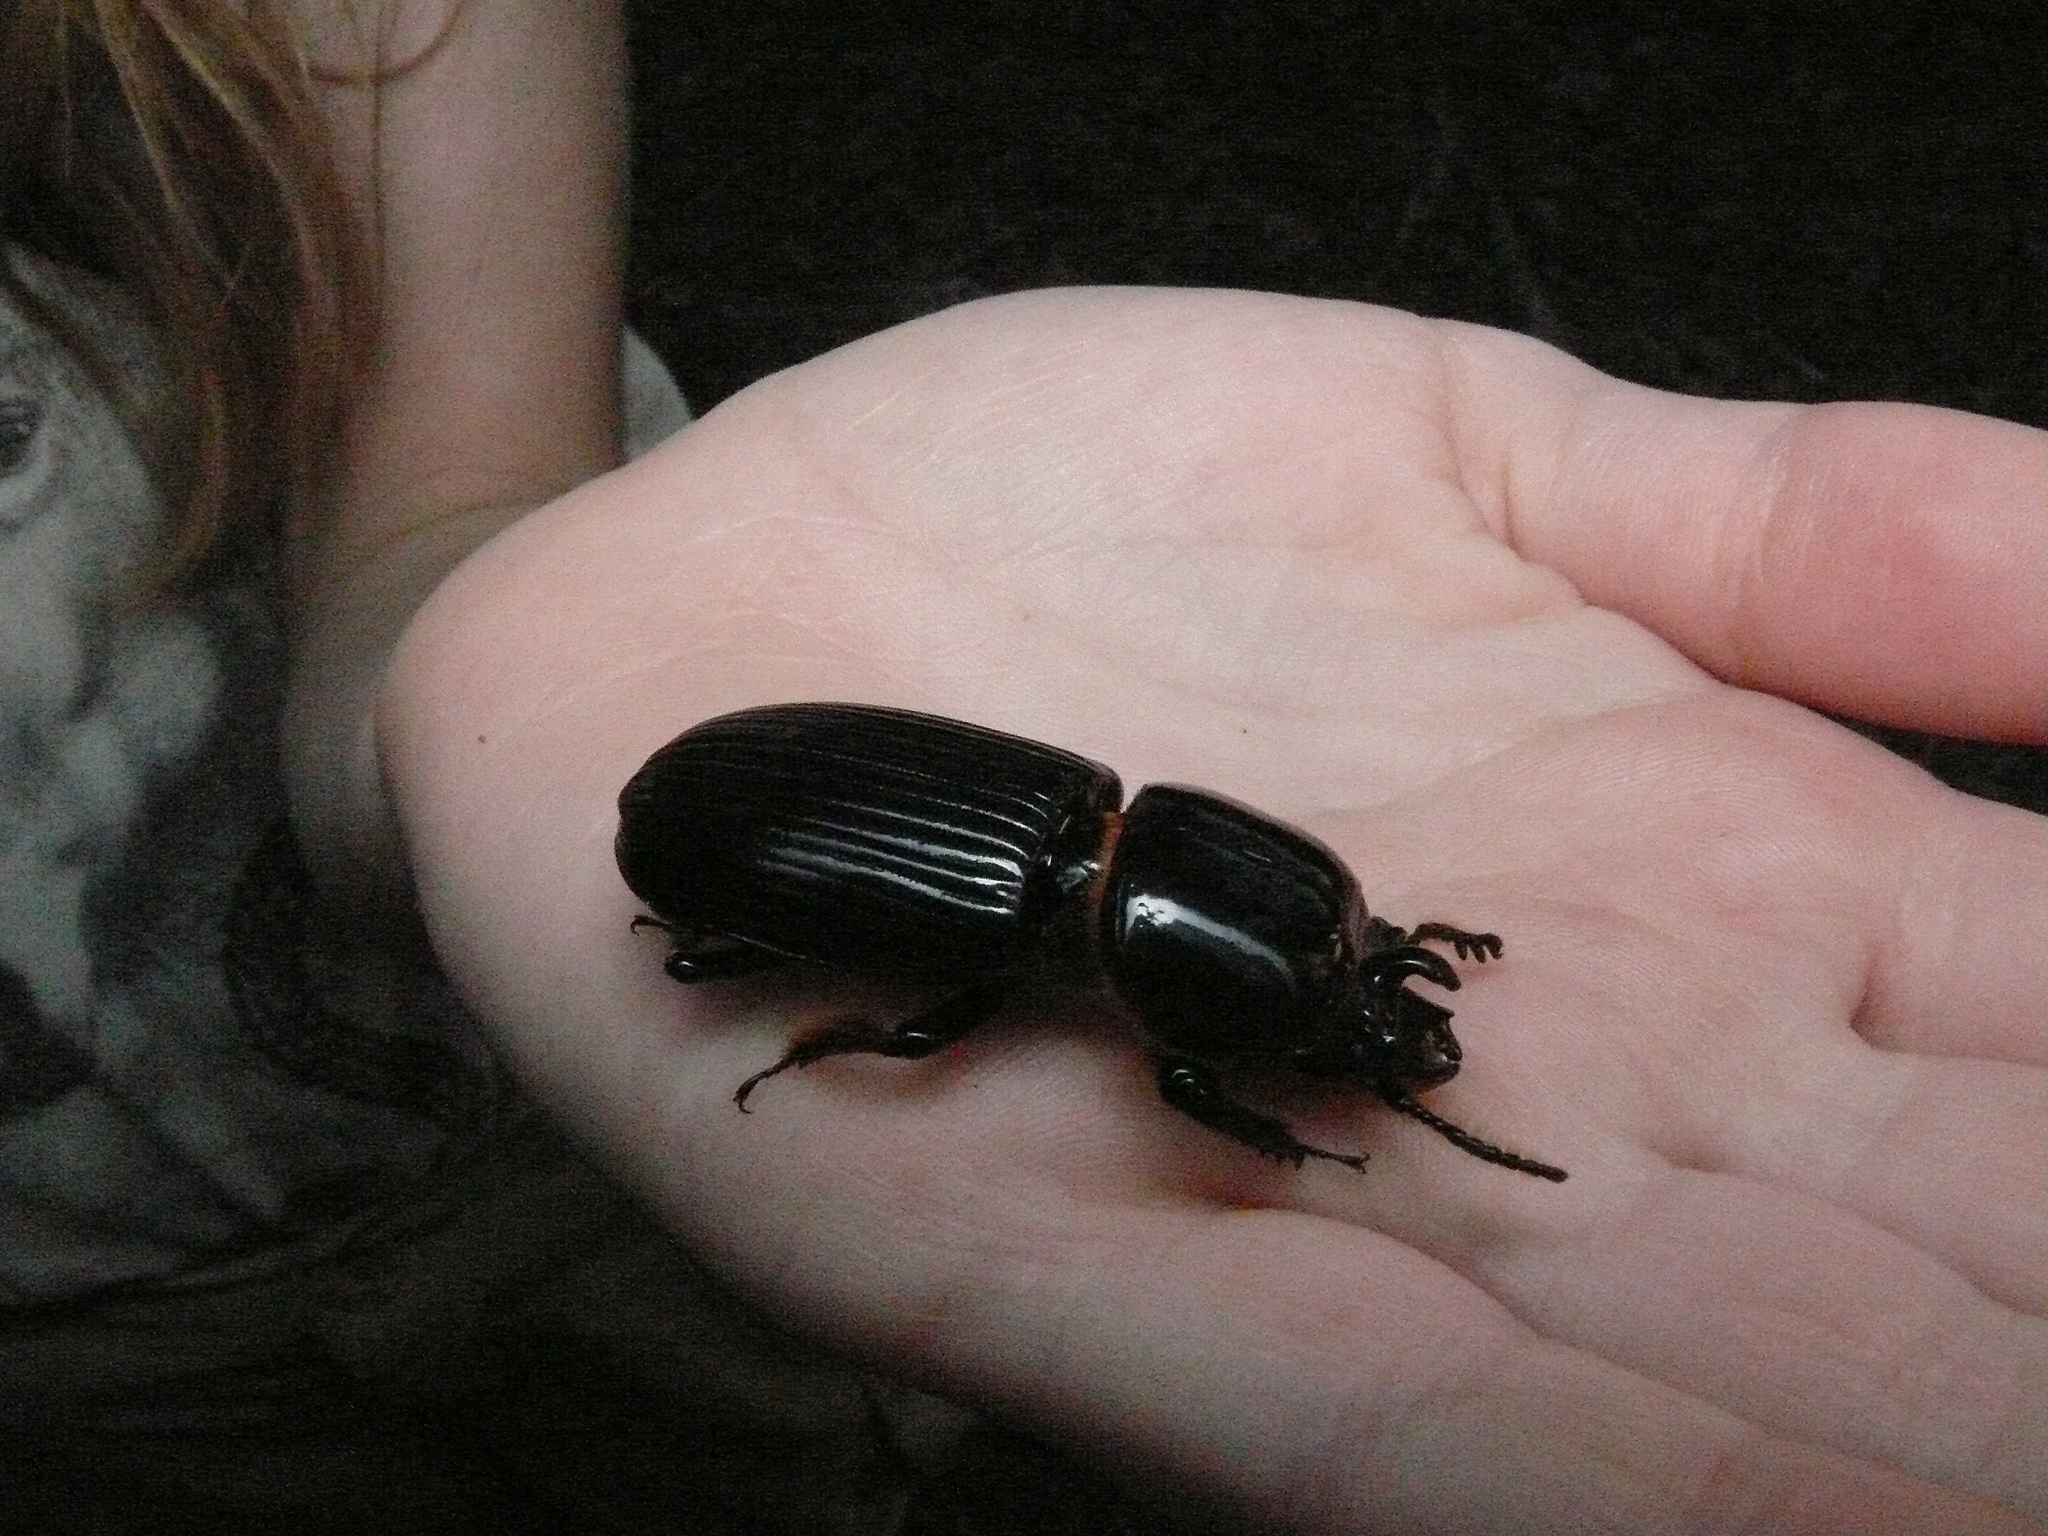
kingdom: Animalia
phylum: Arthropoda
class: Insecta
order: Coleoptera
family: Passalidae
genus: Odontotaenius
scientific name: Odontotaenius disjunctus
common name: Patent leather beetle
